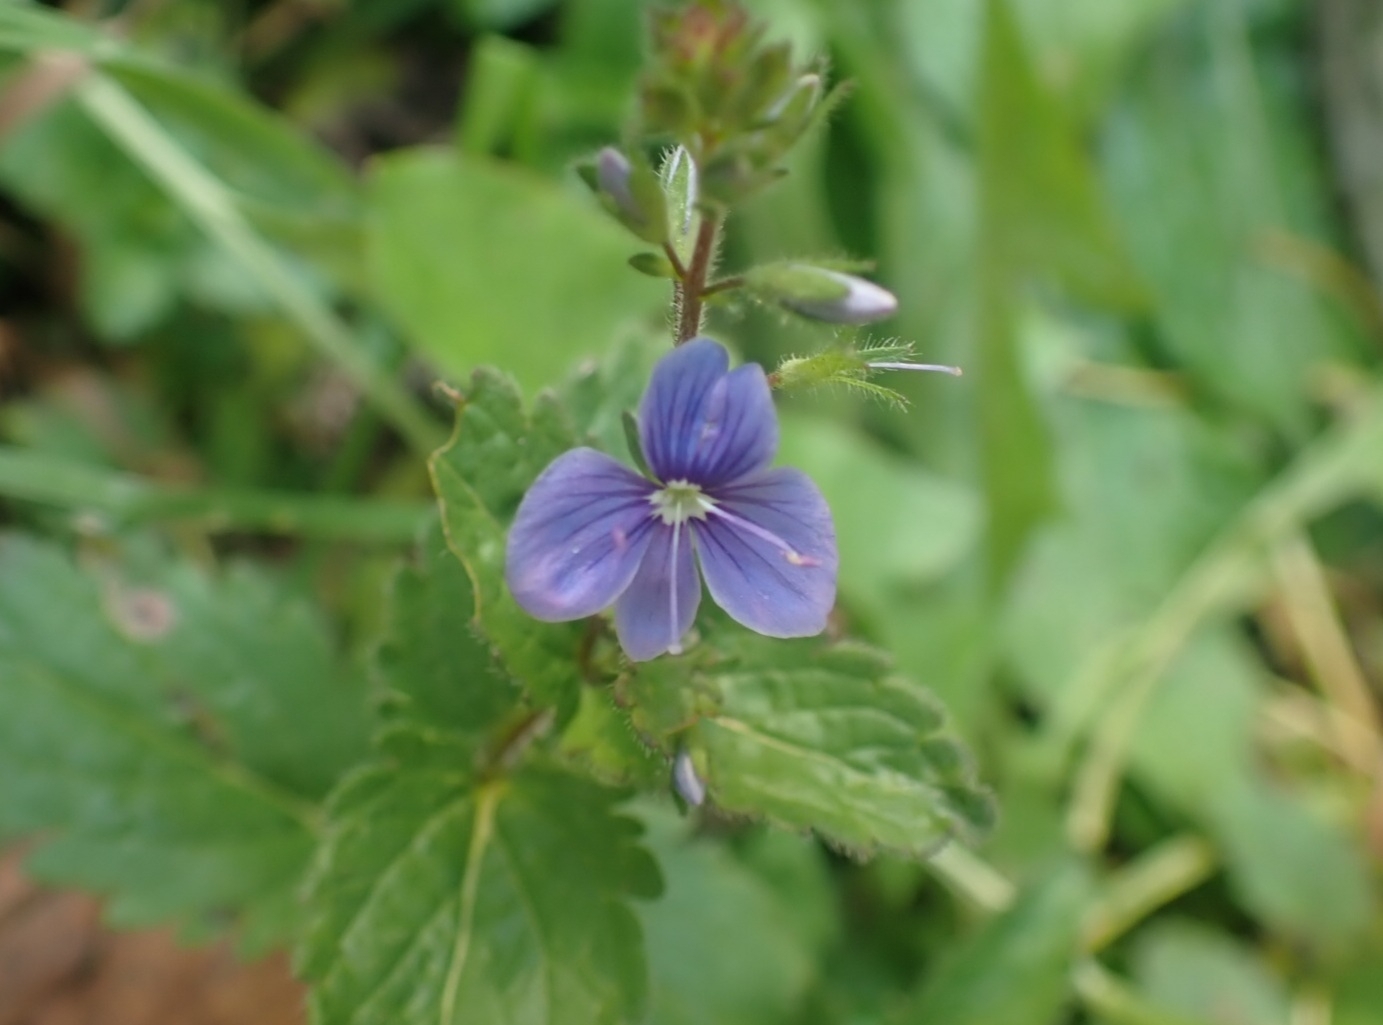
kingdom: Plantae
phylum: Tracheophyta
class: Magnoliopsida
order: Lamiales
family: Plantaginaceae
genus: Veronica
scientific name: Veronica chamaedrys
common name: Germander speedwell
